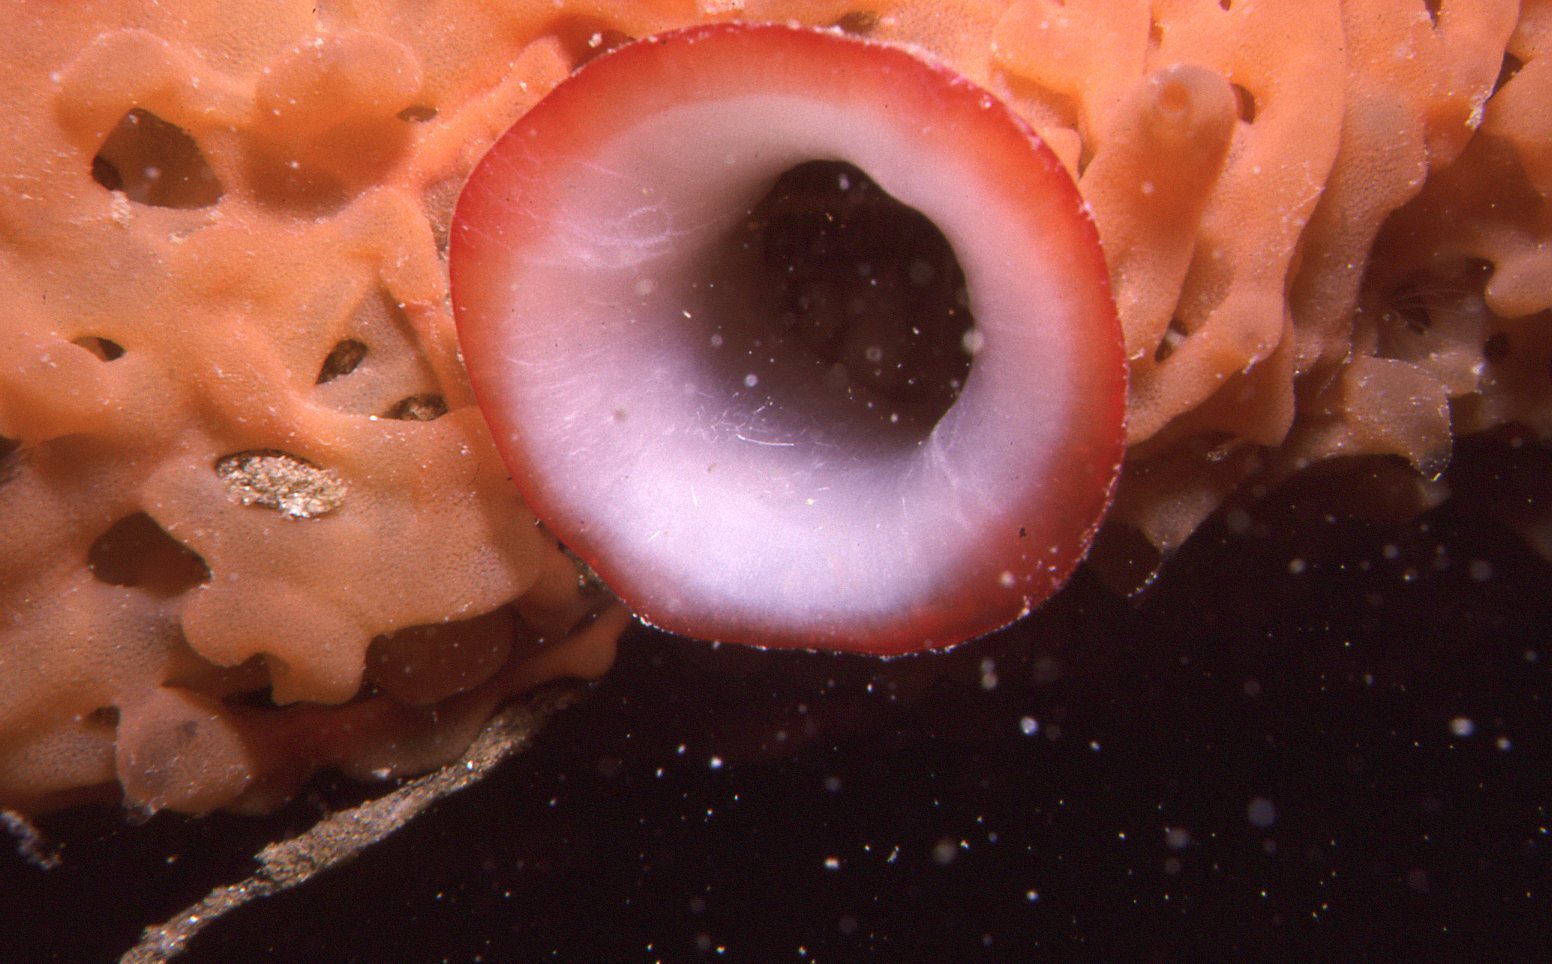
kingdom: Animalia
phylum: Chordata
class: Ascidiacea
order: Stolidobranchia
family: Pyuridae
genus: Herdmania
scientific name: Herdmania grandis
